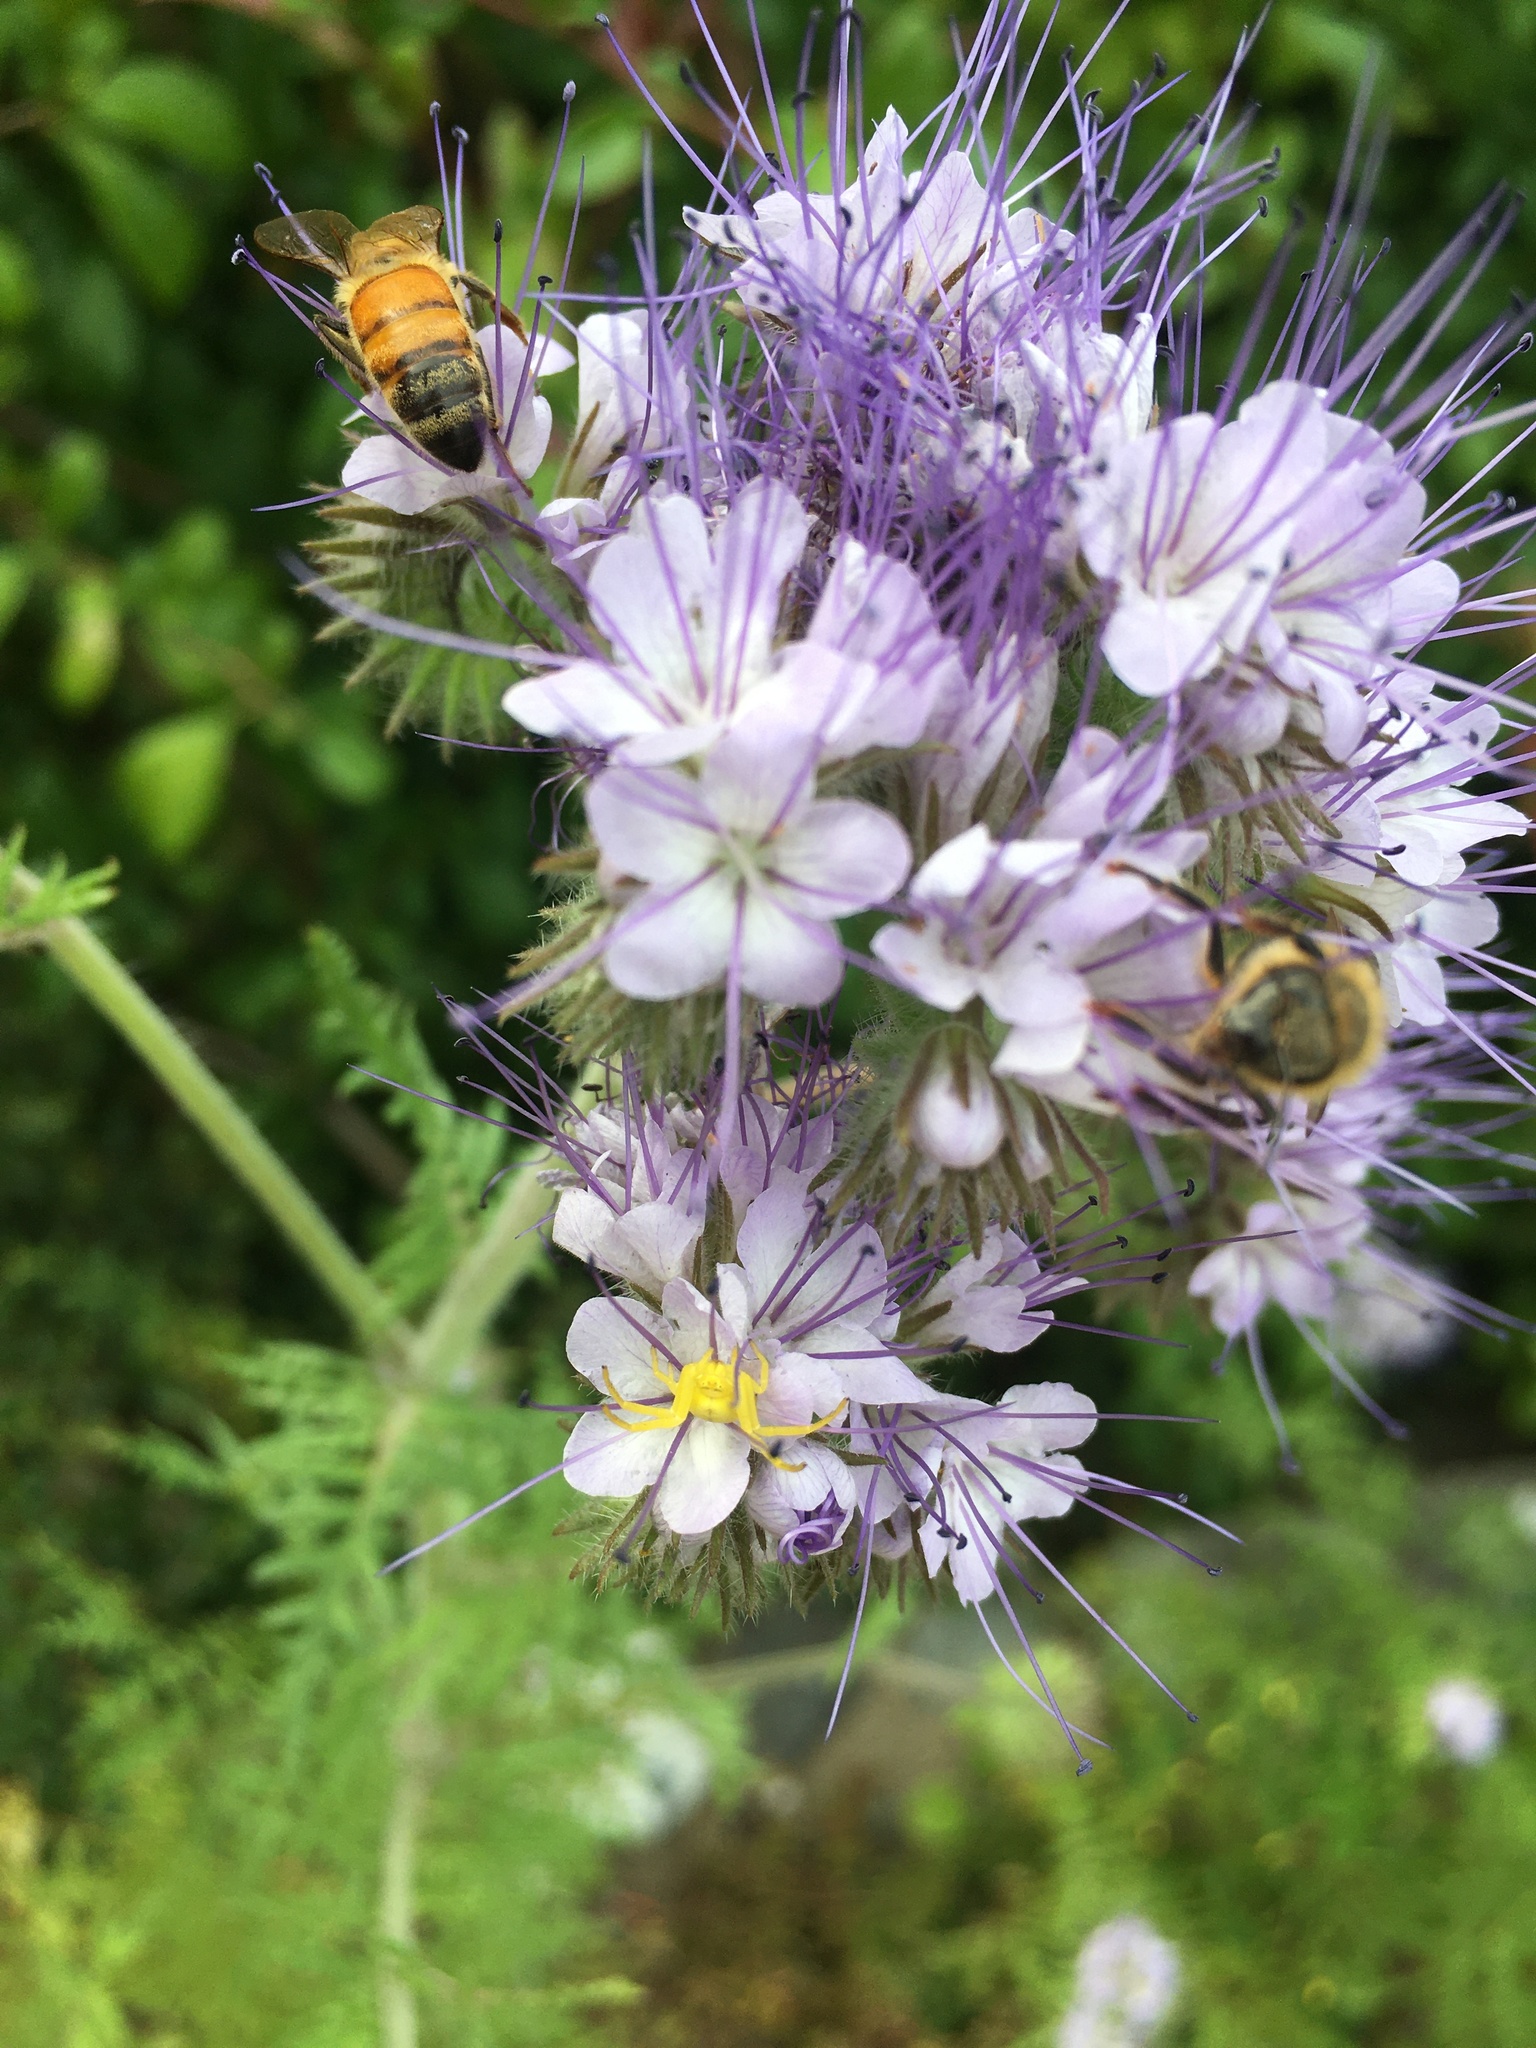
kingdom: Animalia
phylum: Arthropoda
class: Arachnida
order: Araneae
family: Thomisidae
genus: Misumena
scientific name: Misumena vatia
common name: Goldenrod crab spider
